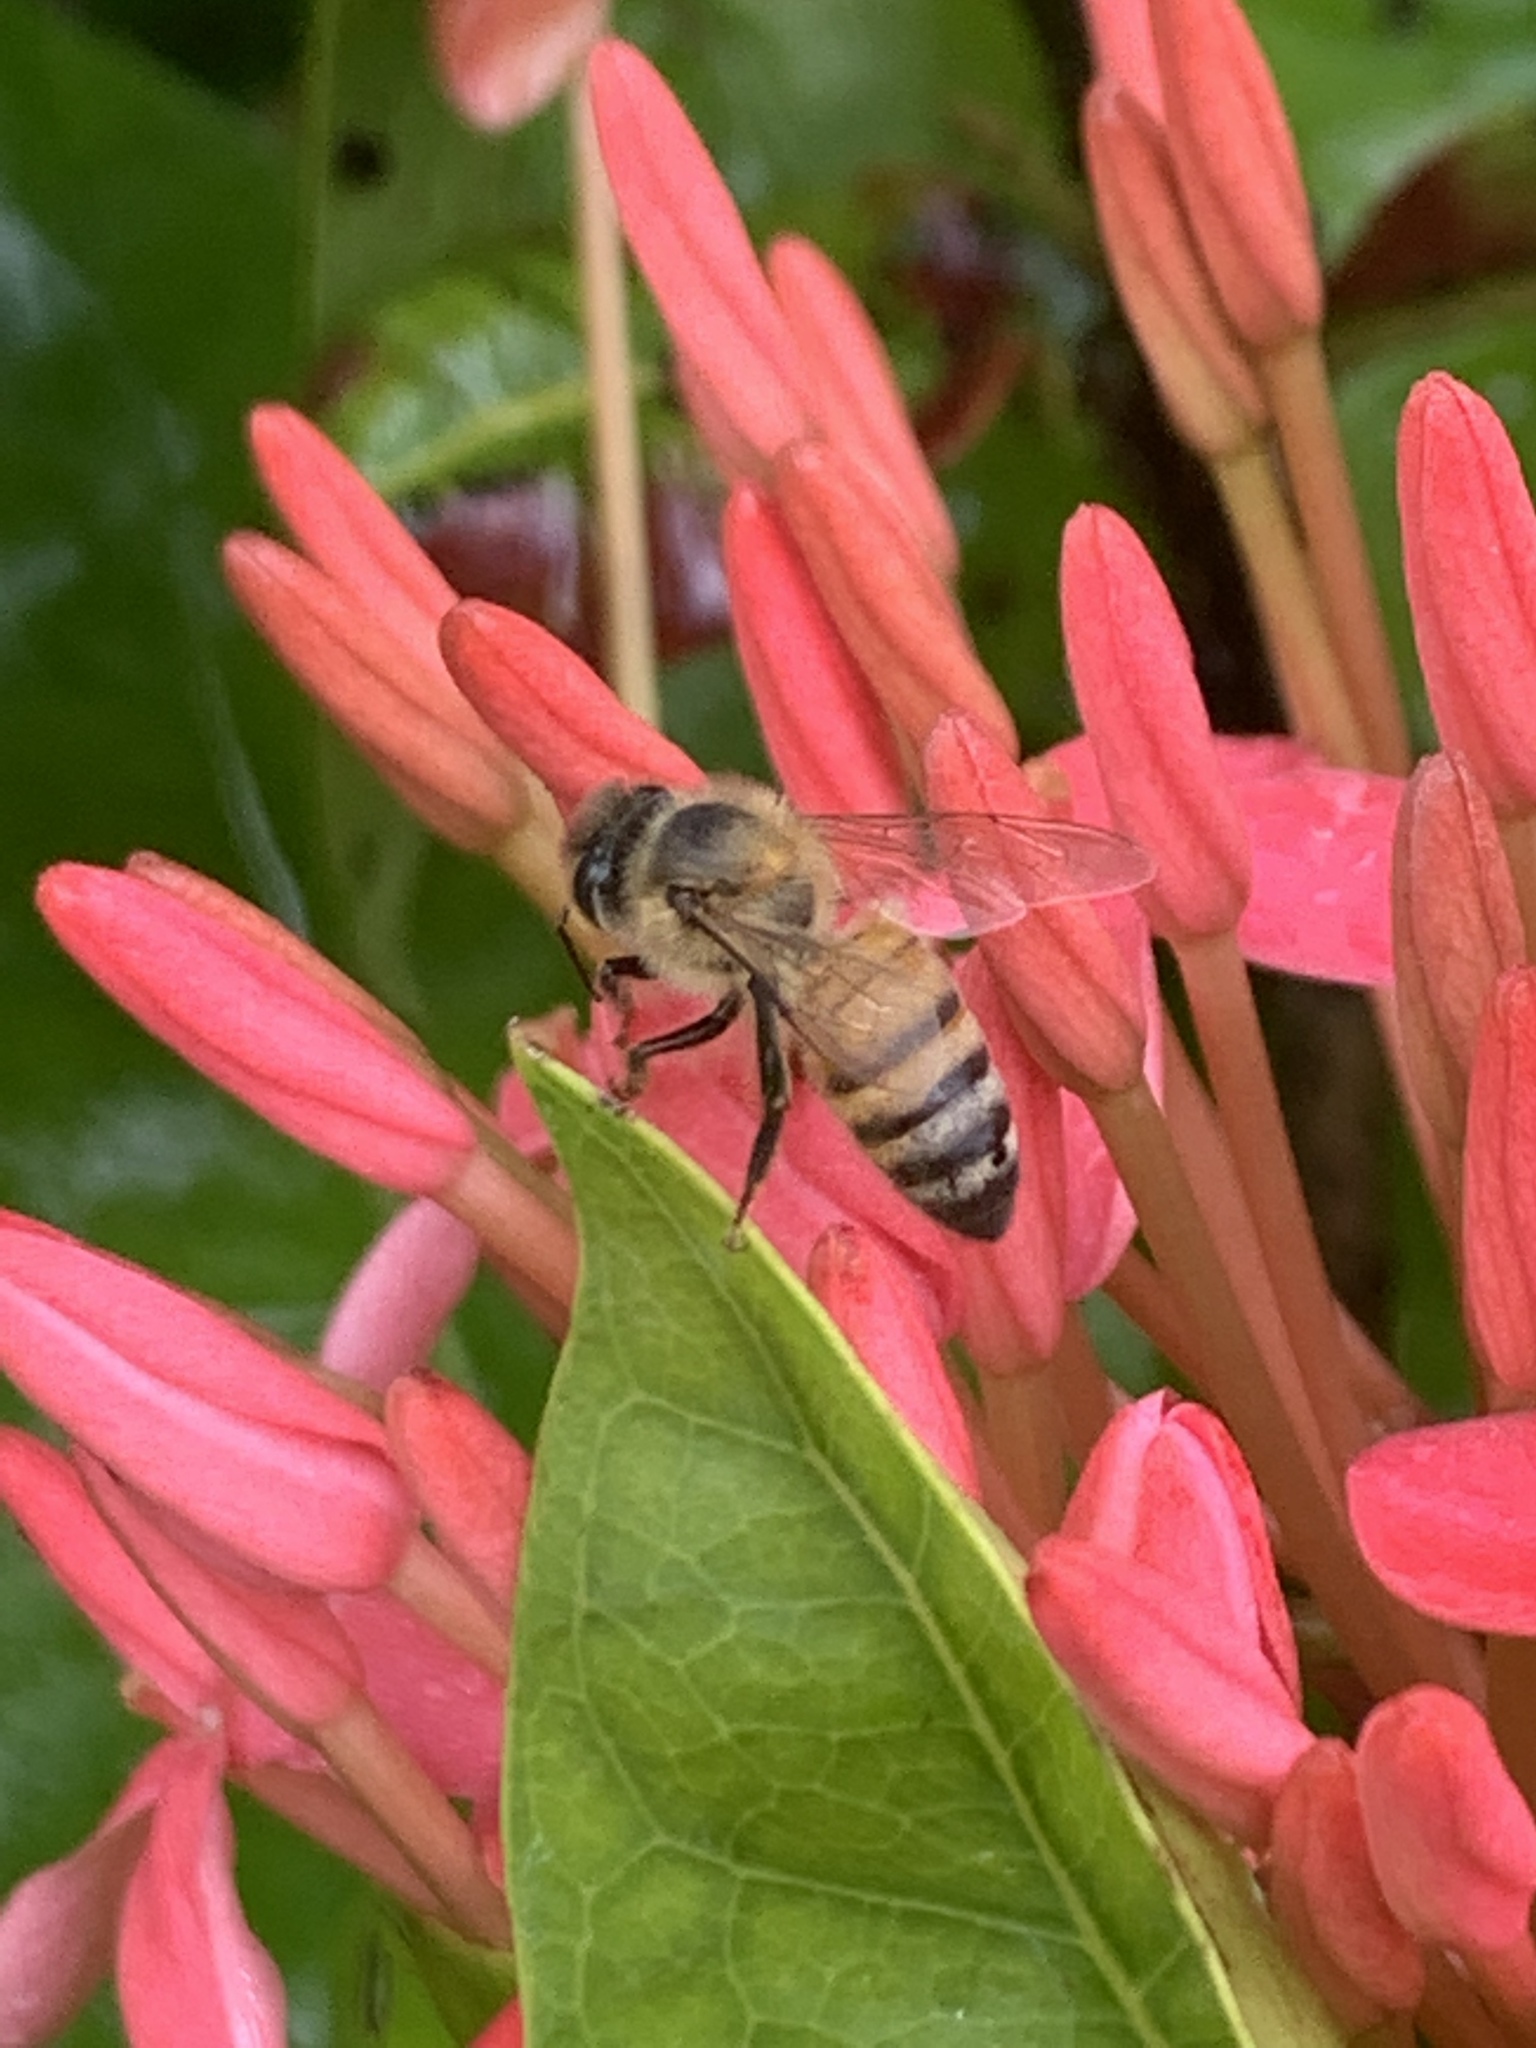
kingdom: Animalia
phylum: Arthropoda
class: Insecta
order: Hymenoptera
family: Apidae
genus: Apis
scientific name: Apis mellifera
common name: Honey bee
